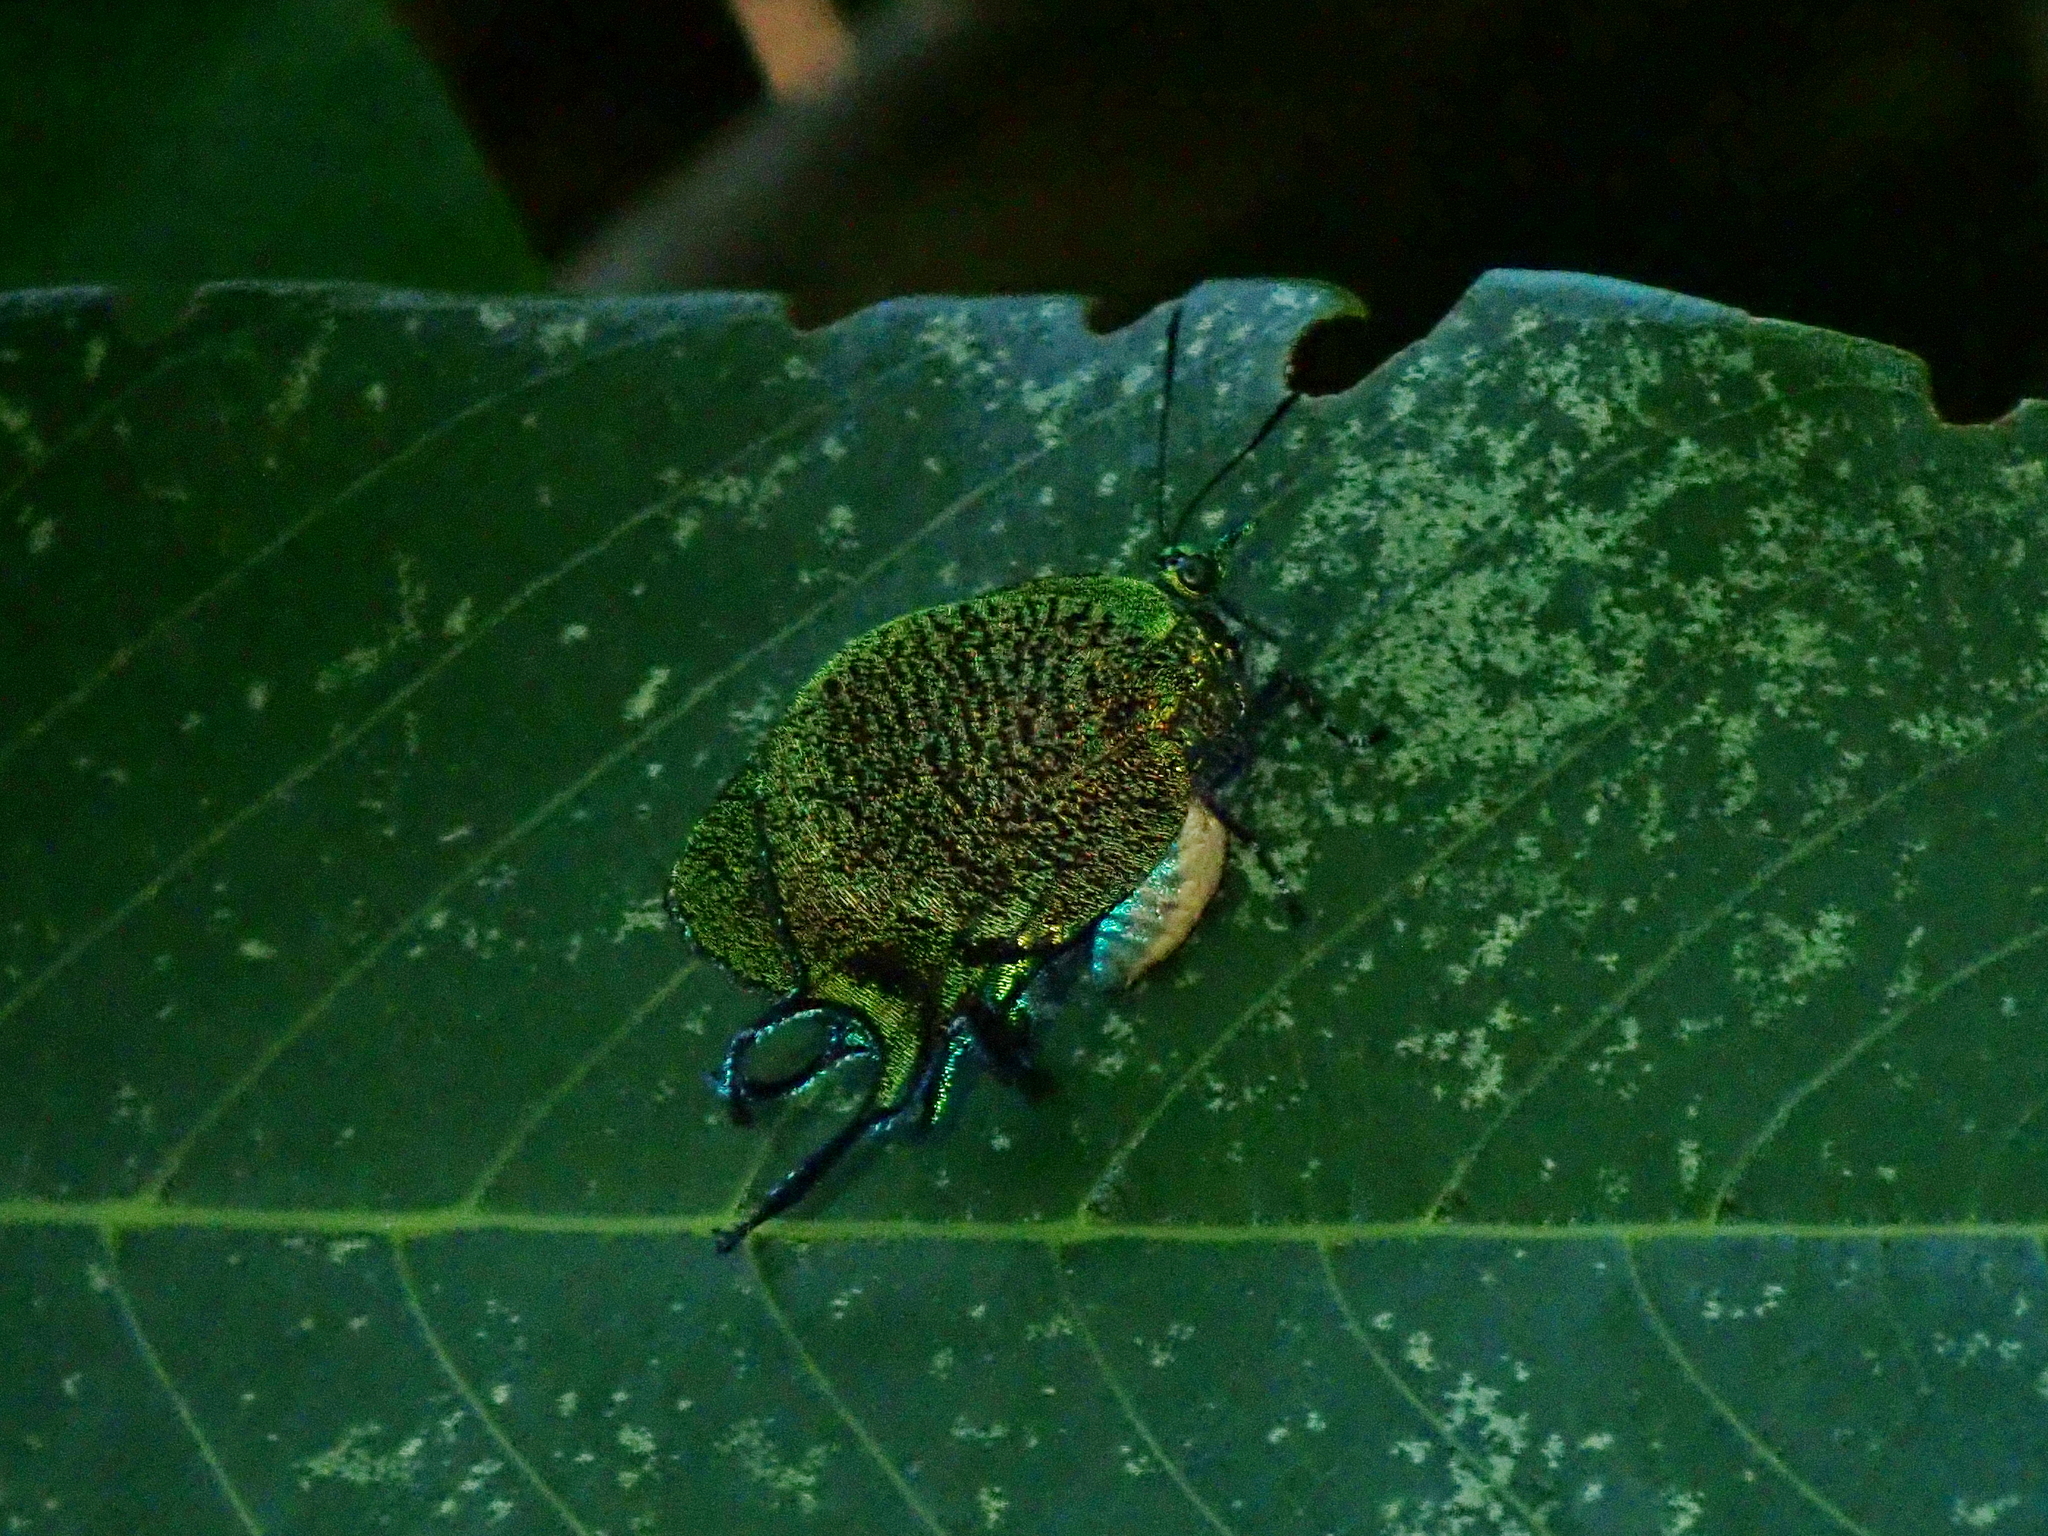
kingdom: Animalia
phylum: Arthropoda
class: Insecta
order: Lepidoptera
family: Lycaenidae
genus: Arcas
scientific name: Arcas imperialis
